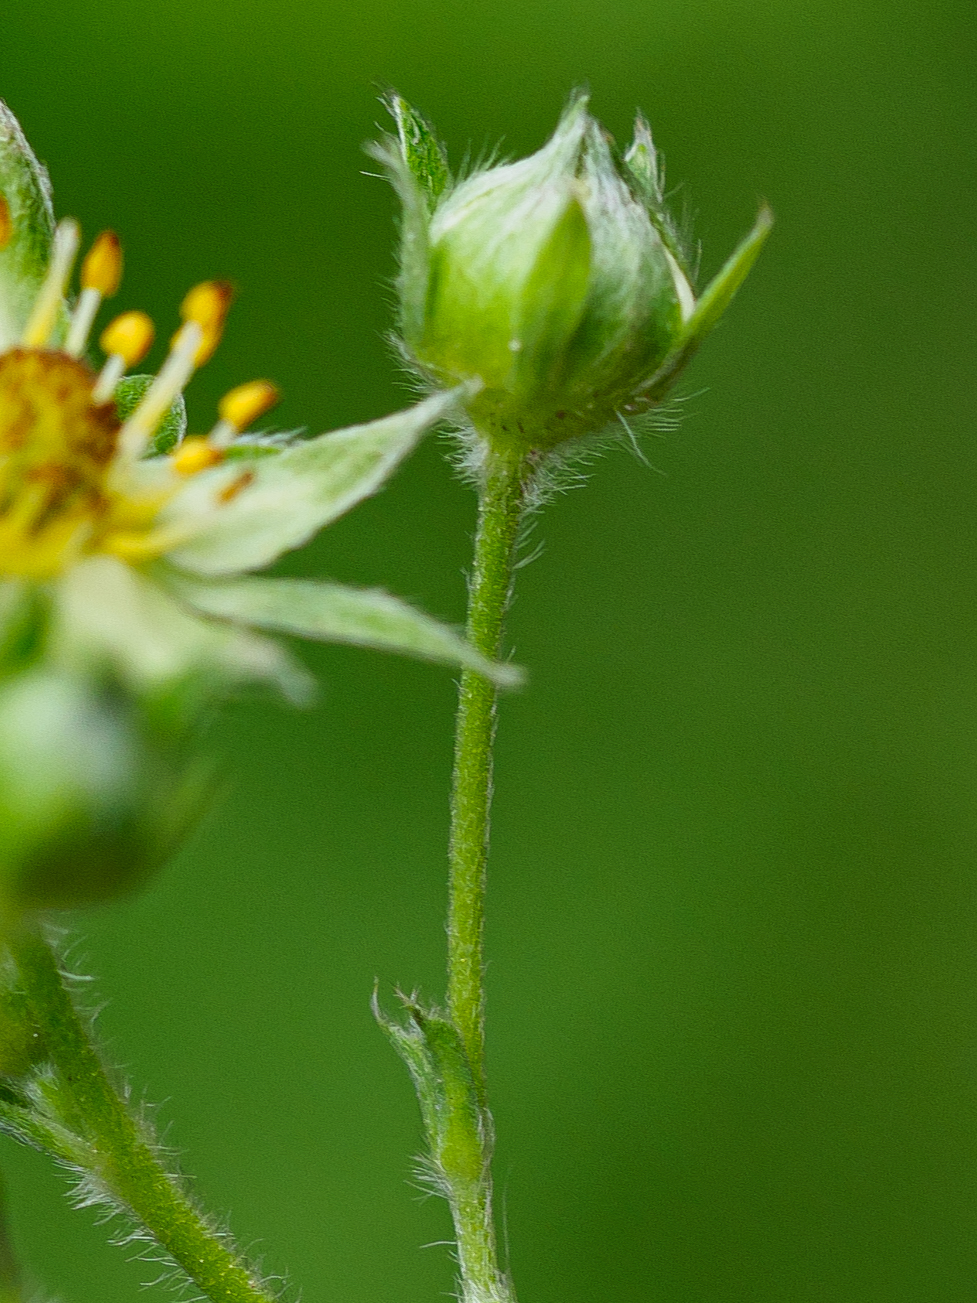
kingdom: Plantae
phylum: Tracheophyta
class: Magnoliopsida
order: Rosales
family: Rosaceae
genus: Fragaria
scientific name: Fragaria viridis
